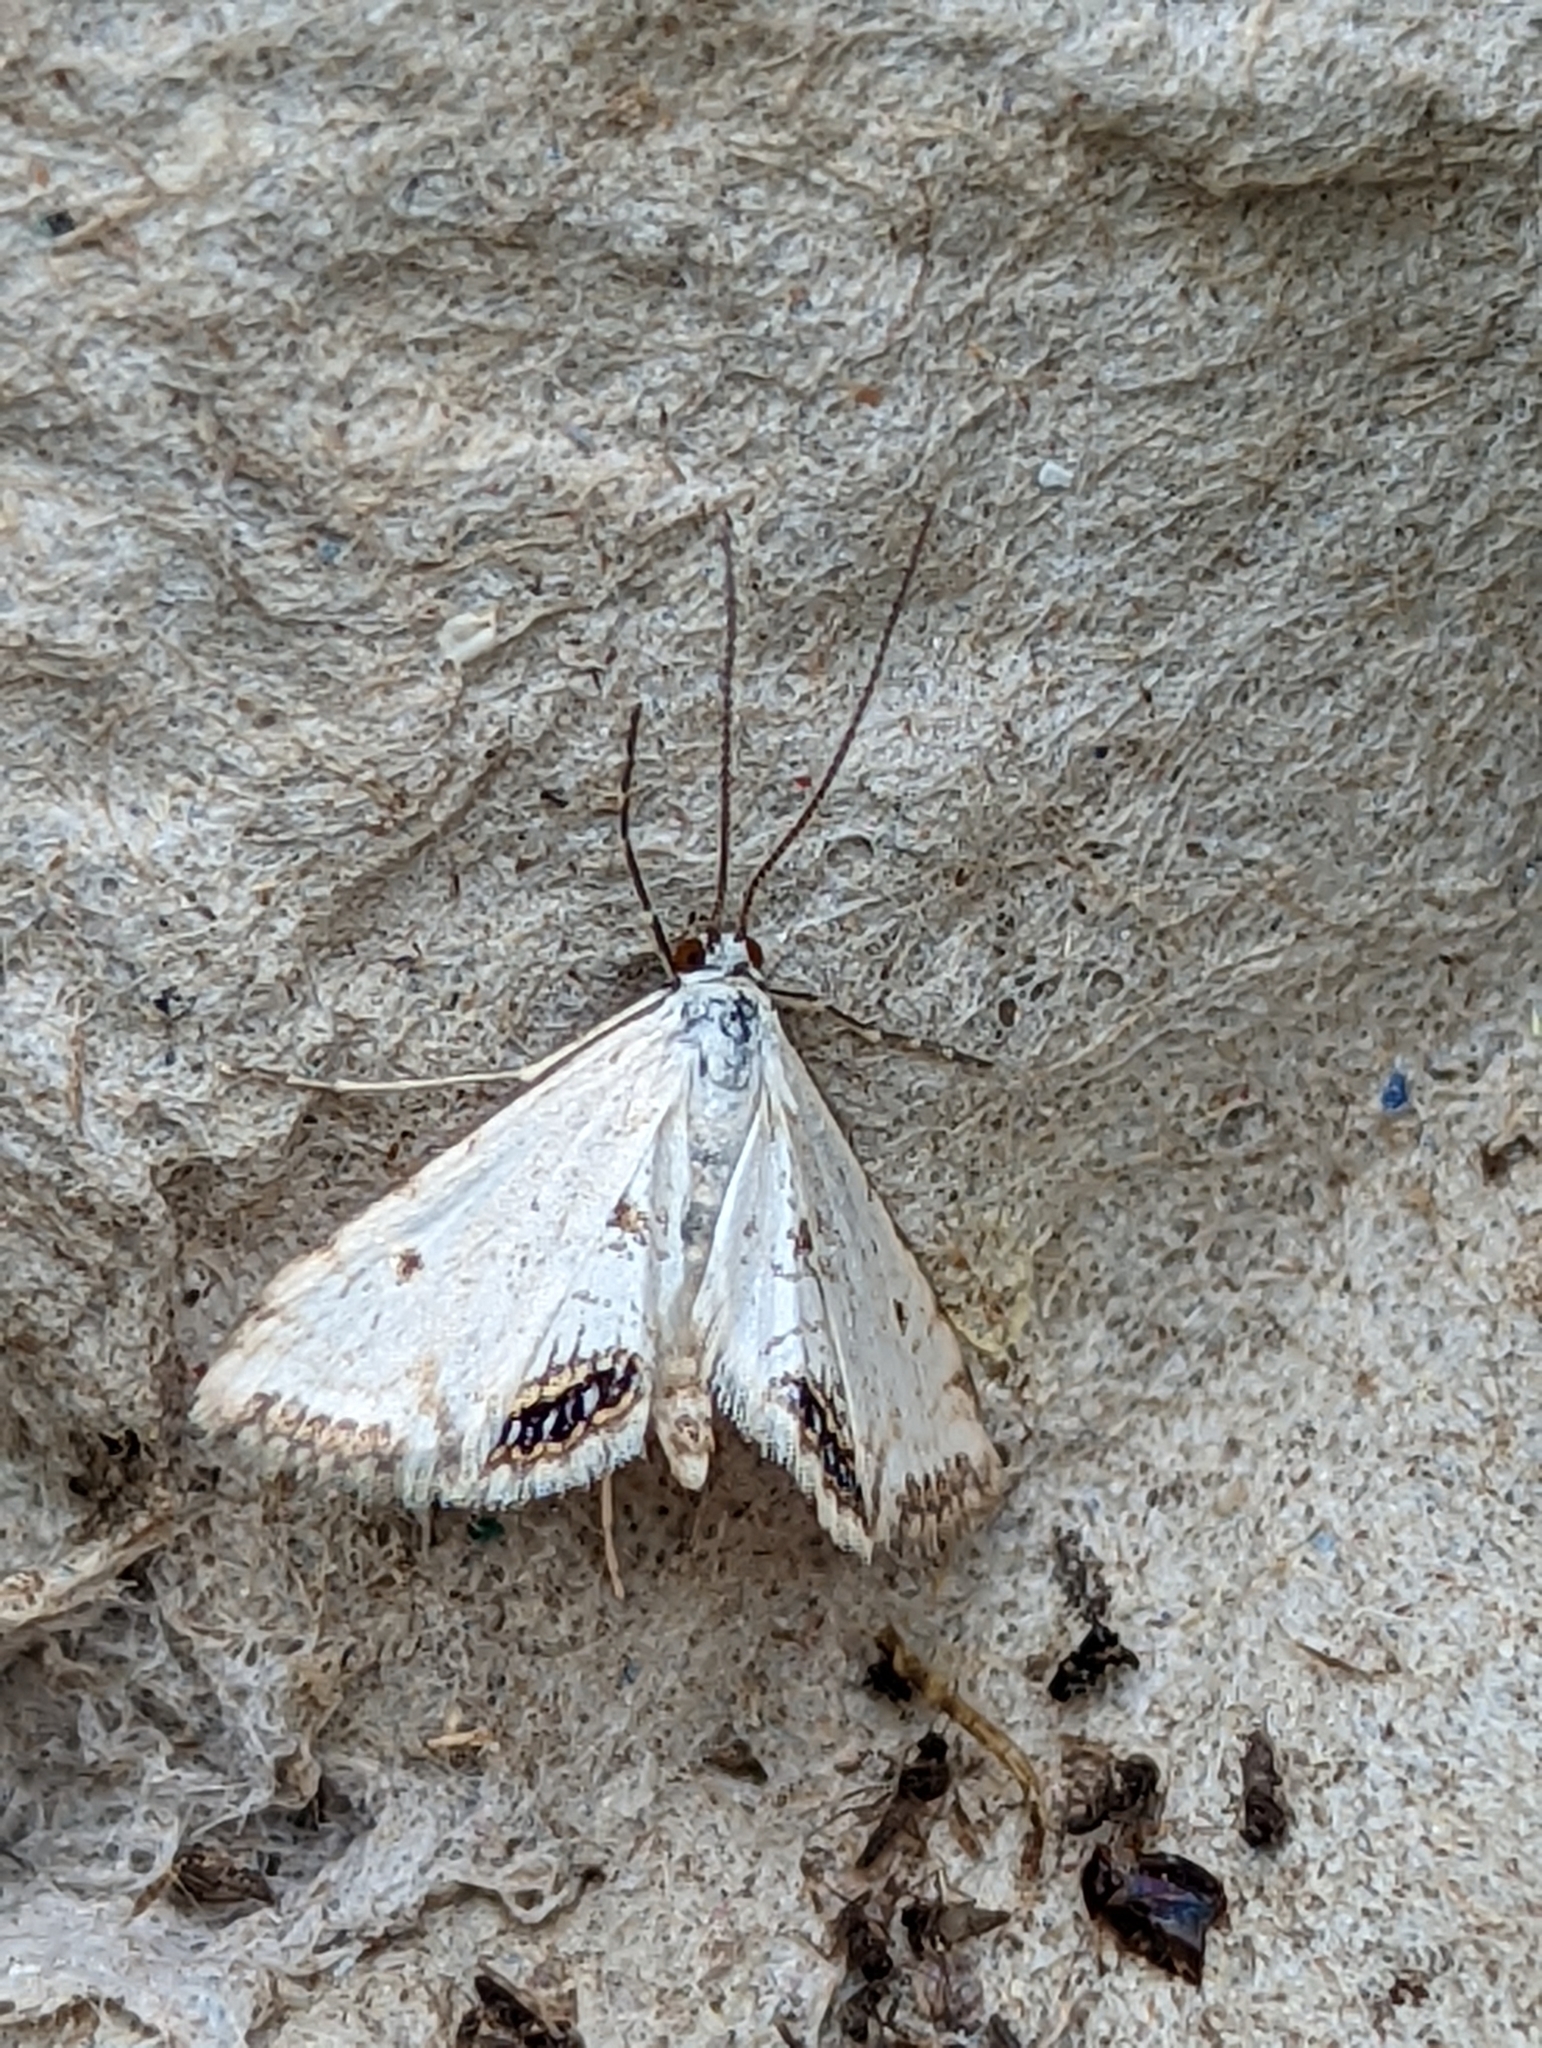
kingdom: Animalia
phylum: Arthropoda
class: Insecta
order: Lepidoptera
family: Crambidae
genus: Cataclysta
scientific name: Cataclysta lemnata
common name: Small china-mark
